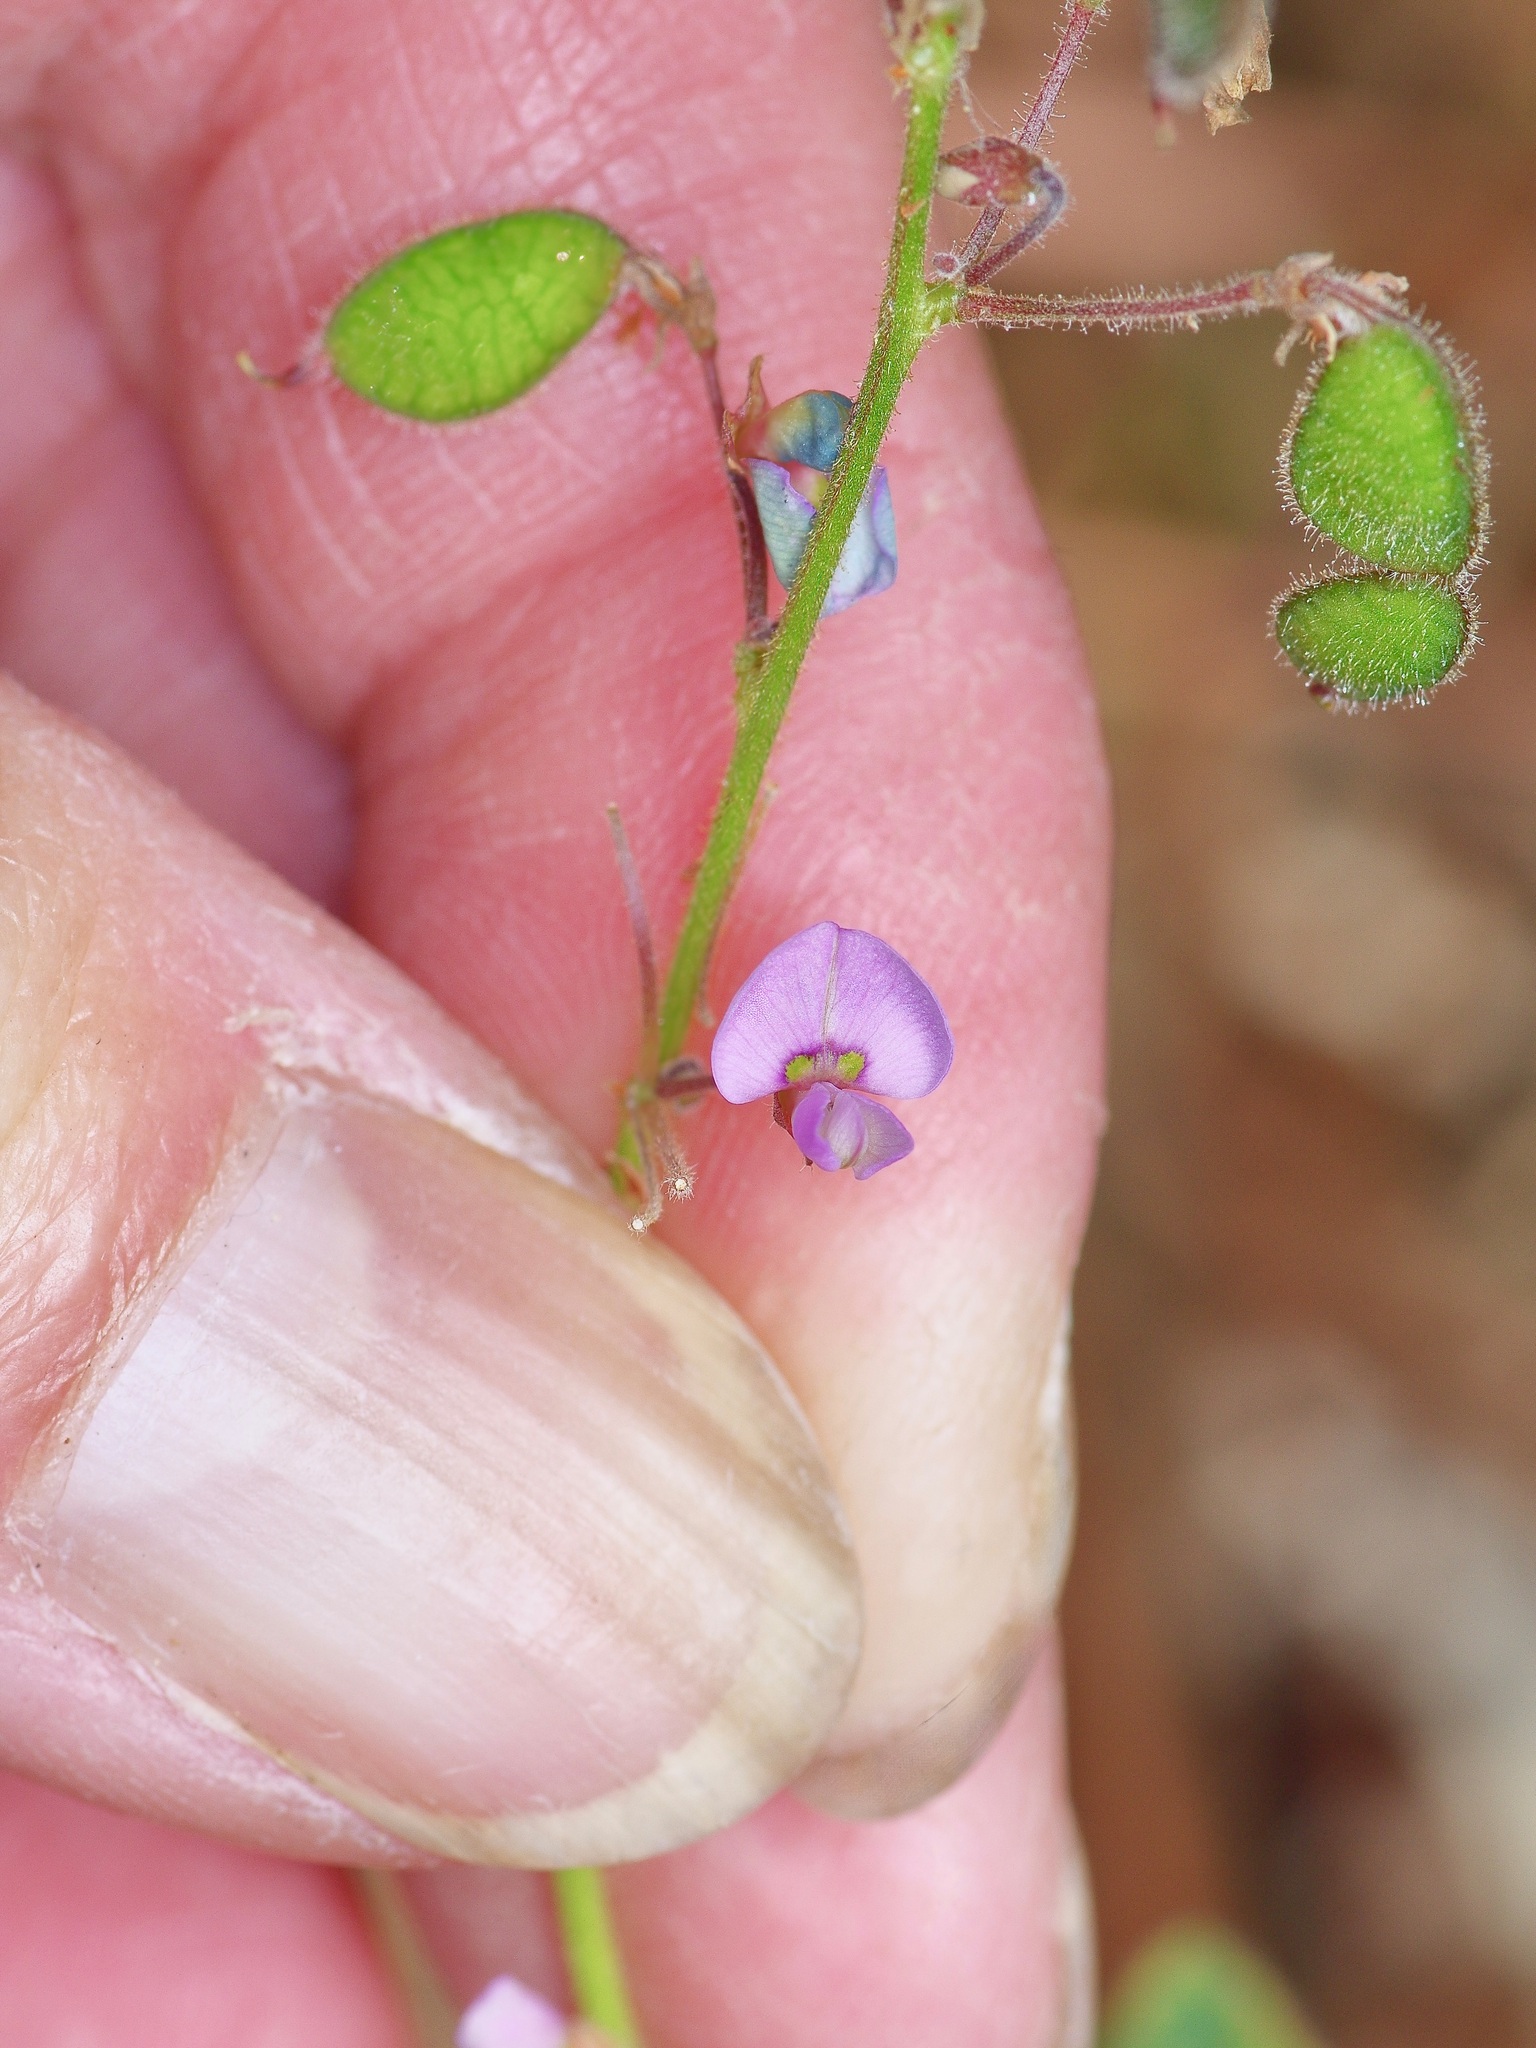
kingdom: Plantae
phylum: Tracheophyta
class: Magnoliopsida
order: Fabales
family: Fabaceae
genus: Desmodium
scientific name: Desmodium ciliare
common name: Hairy small-leaf ticktrefoil
